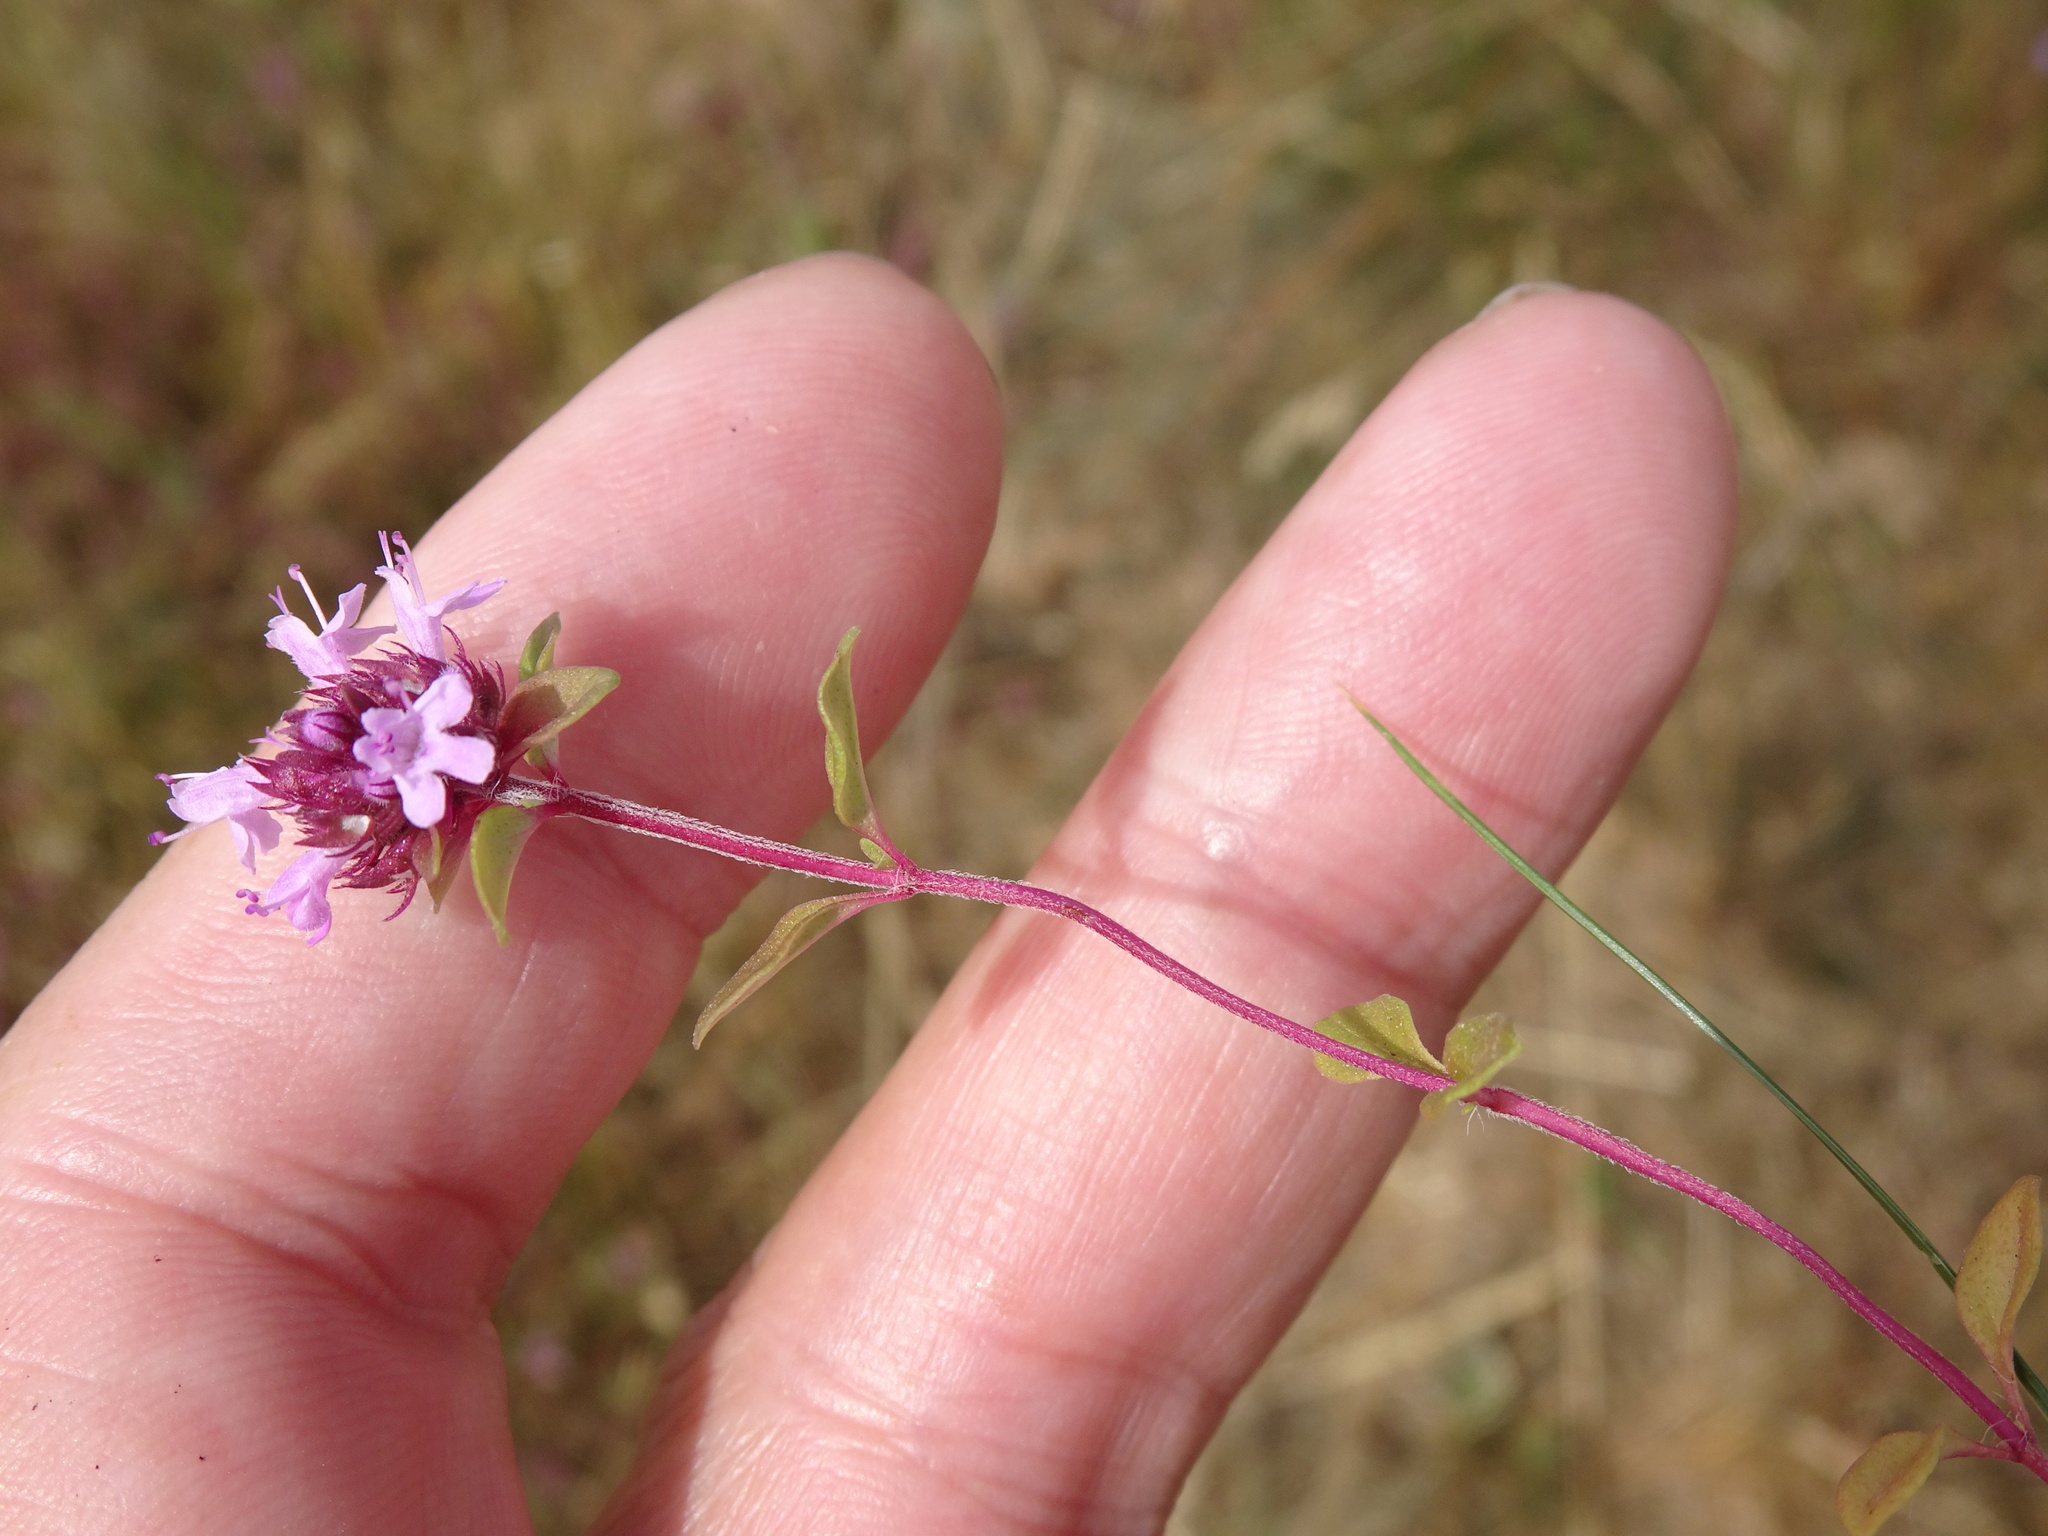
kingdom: Plantae
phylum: Tracheophyta
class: Magnoliopsida
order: Lamiales
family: Lamiaceae
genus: Thymus
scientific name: Thymus pulegioides
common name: Large thyme
